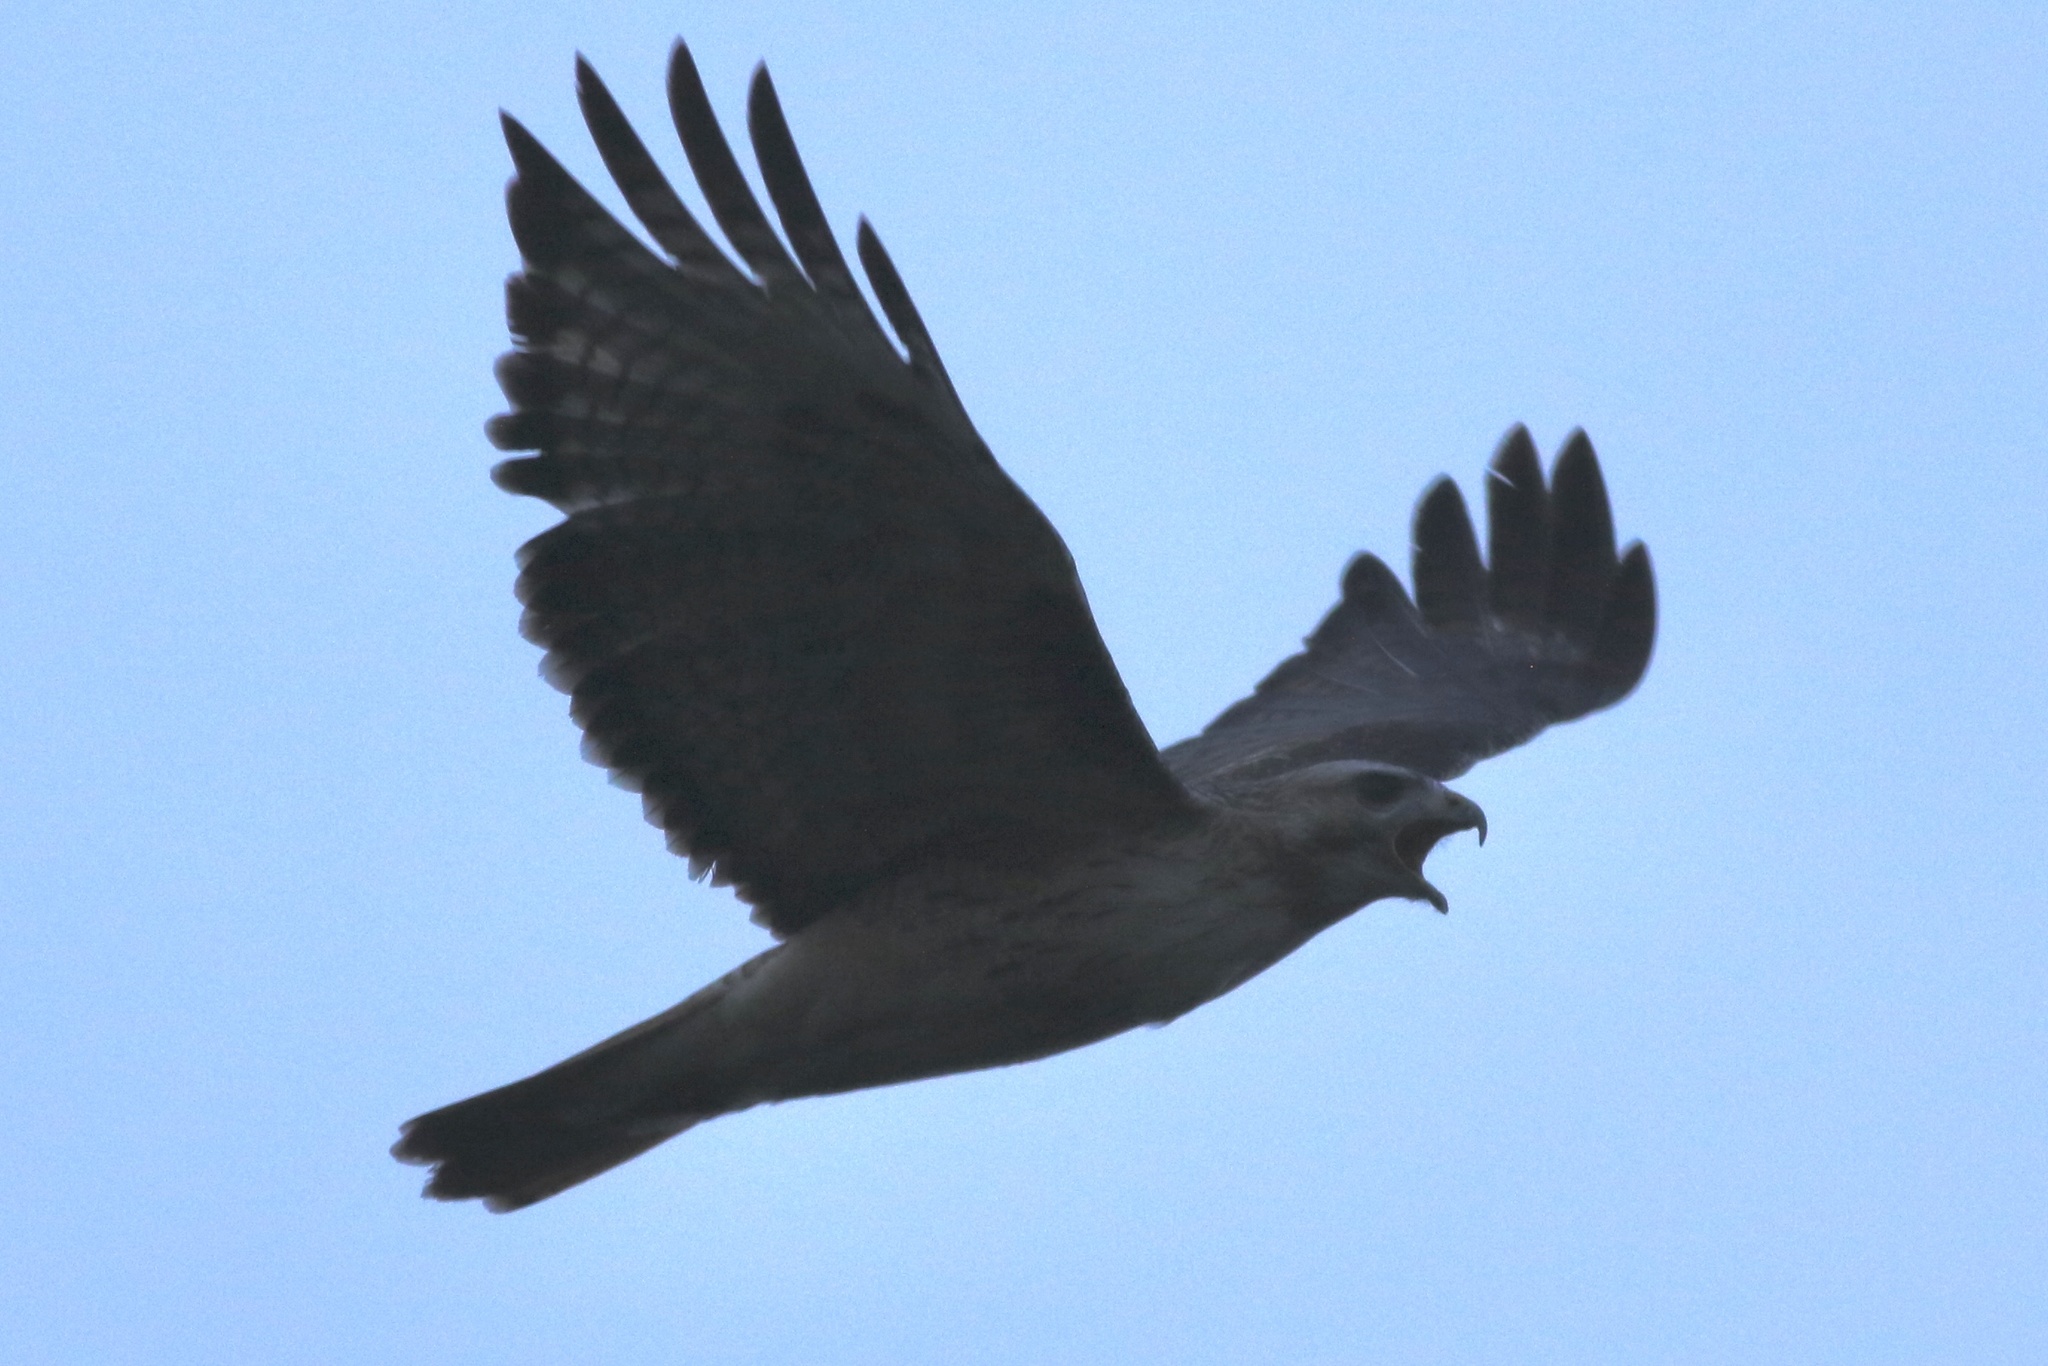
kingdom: Animalia
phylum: Chordata
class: Aves
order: Accipitriformes
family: Accipitridae
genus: Buteo
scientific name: Buteo jamaicensis
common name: Red-tailed hawk
